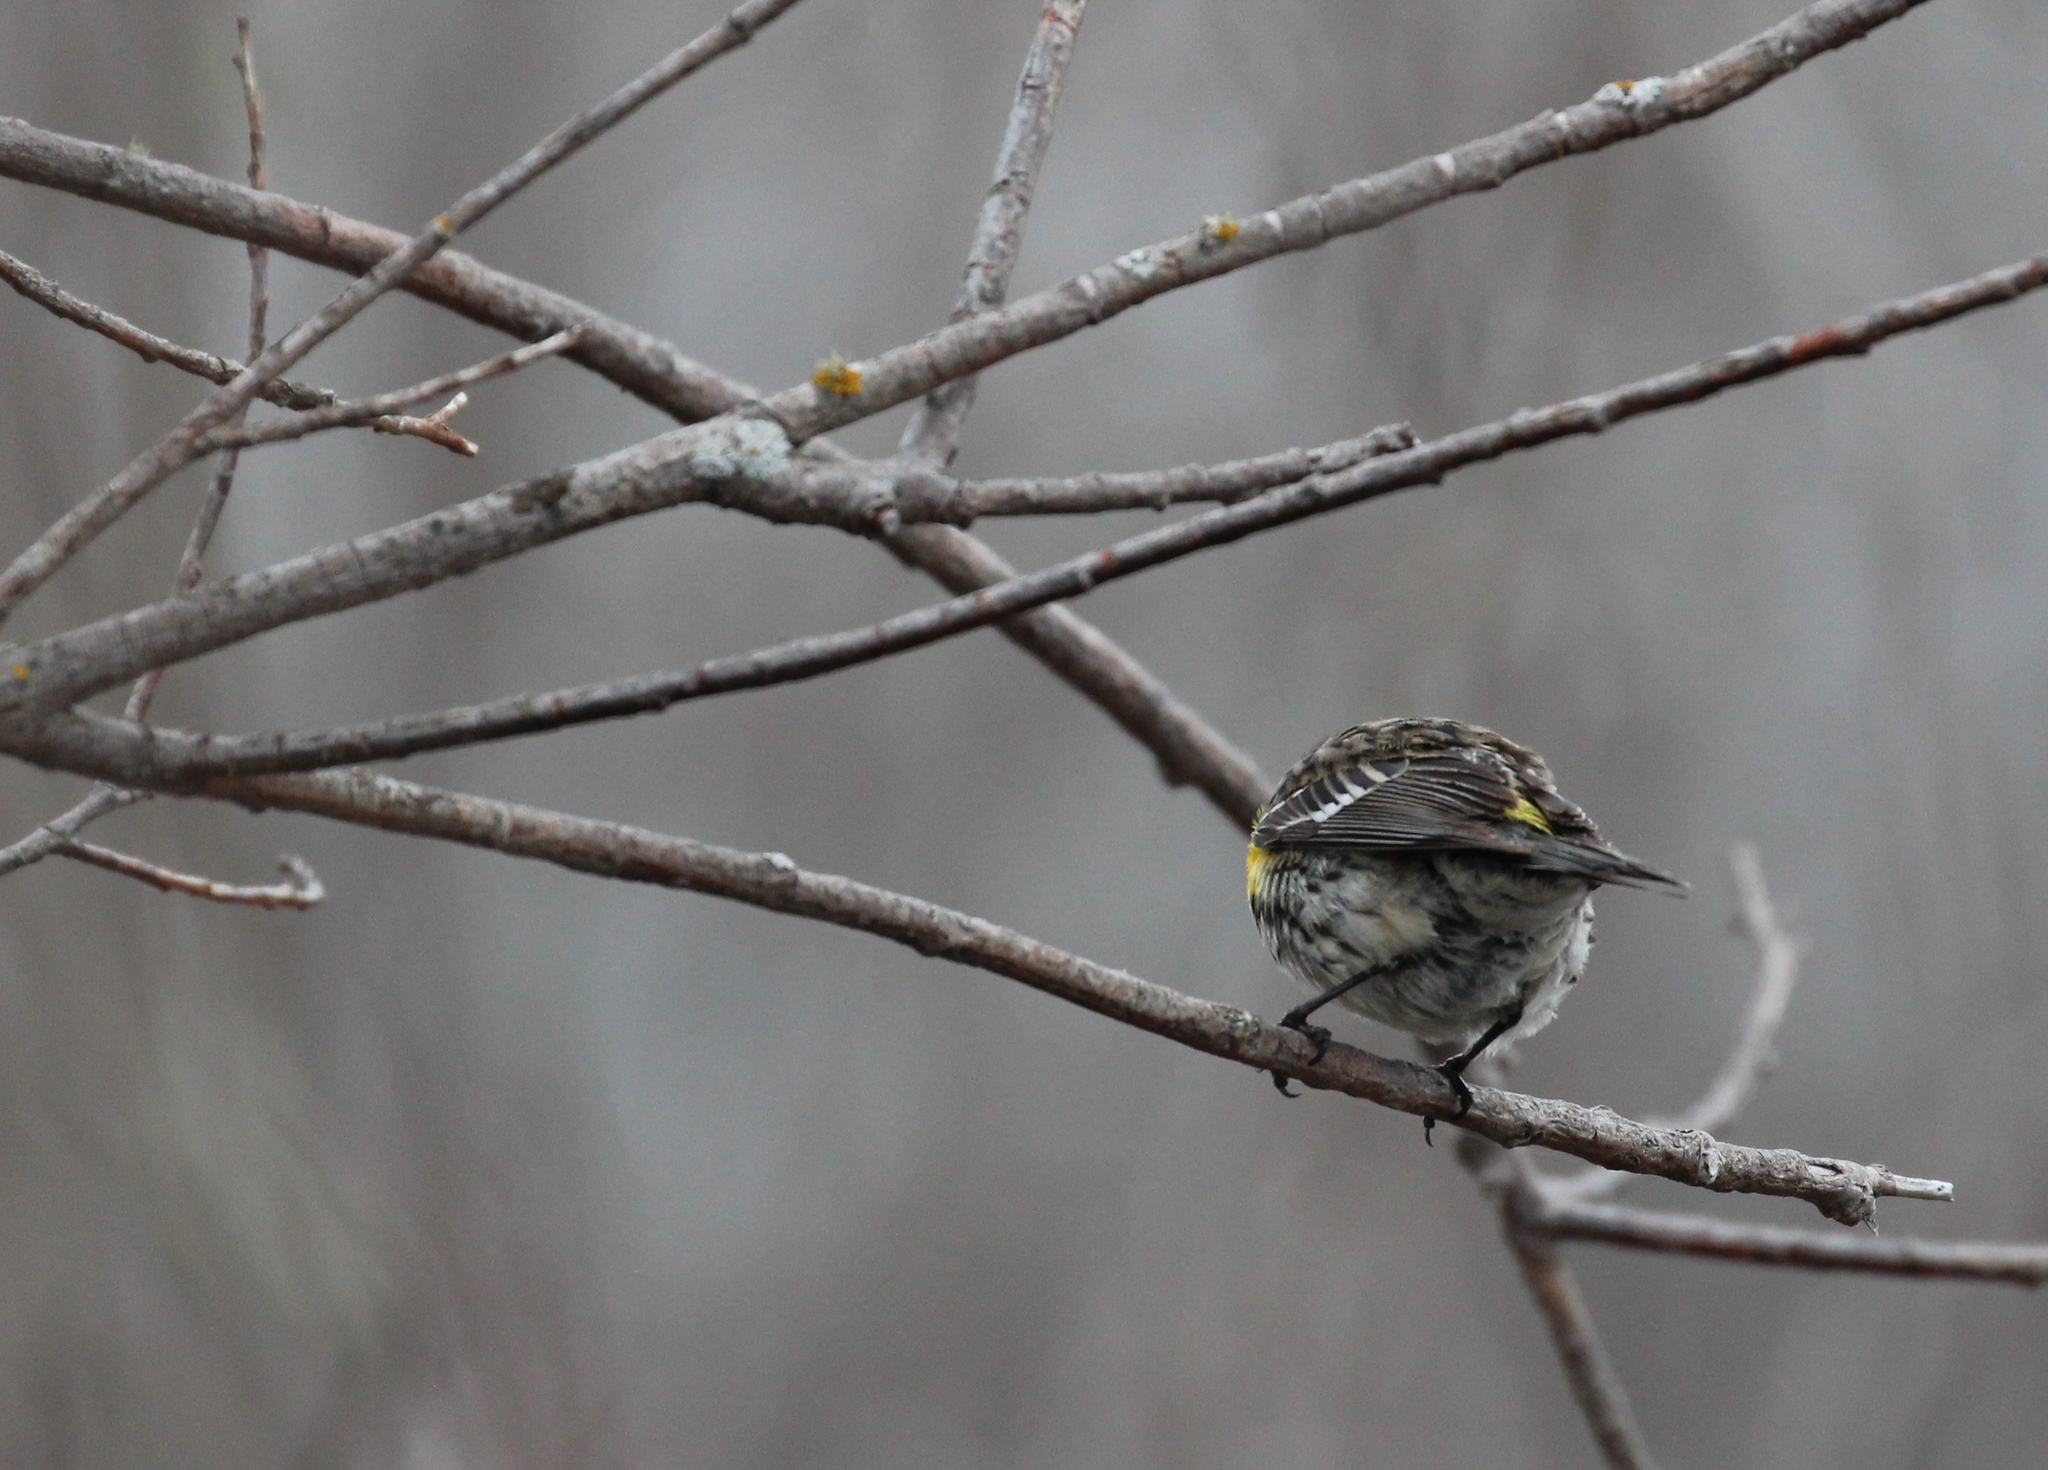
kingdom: Animalia
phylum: Chordata
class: Aves
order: Passeriformes
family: Parulidae
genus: Setophaga
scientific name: Setophaga coronata
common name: Myrtle warbler
